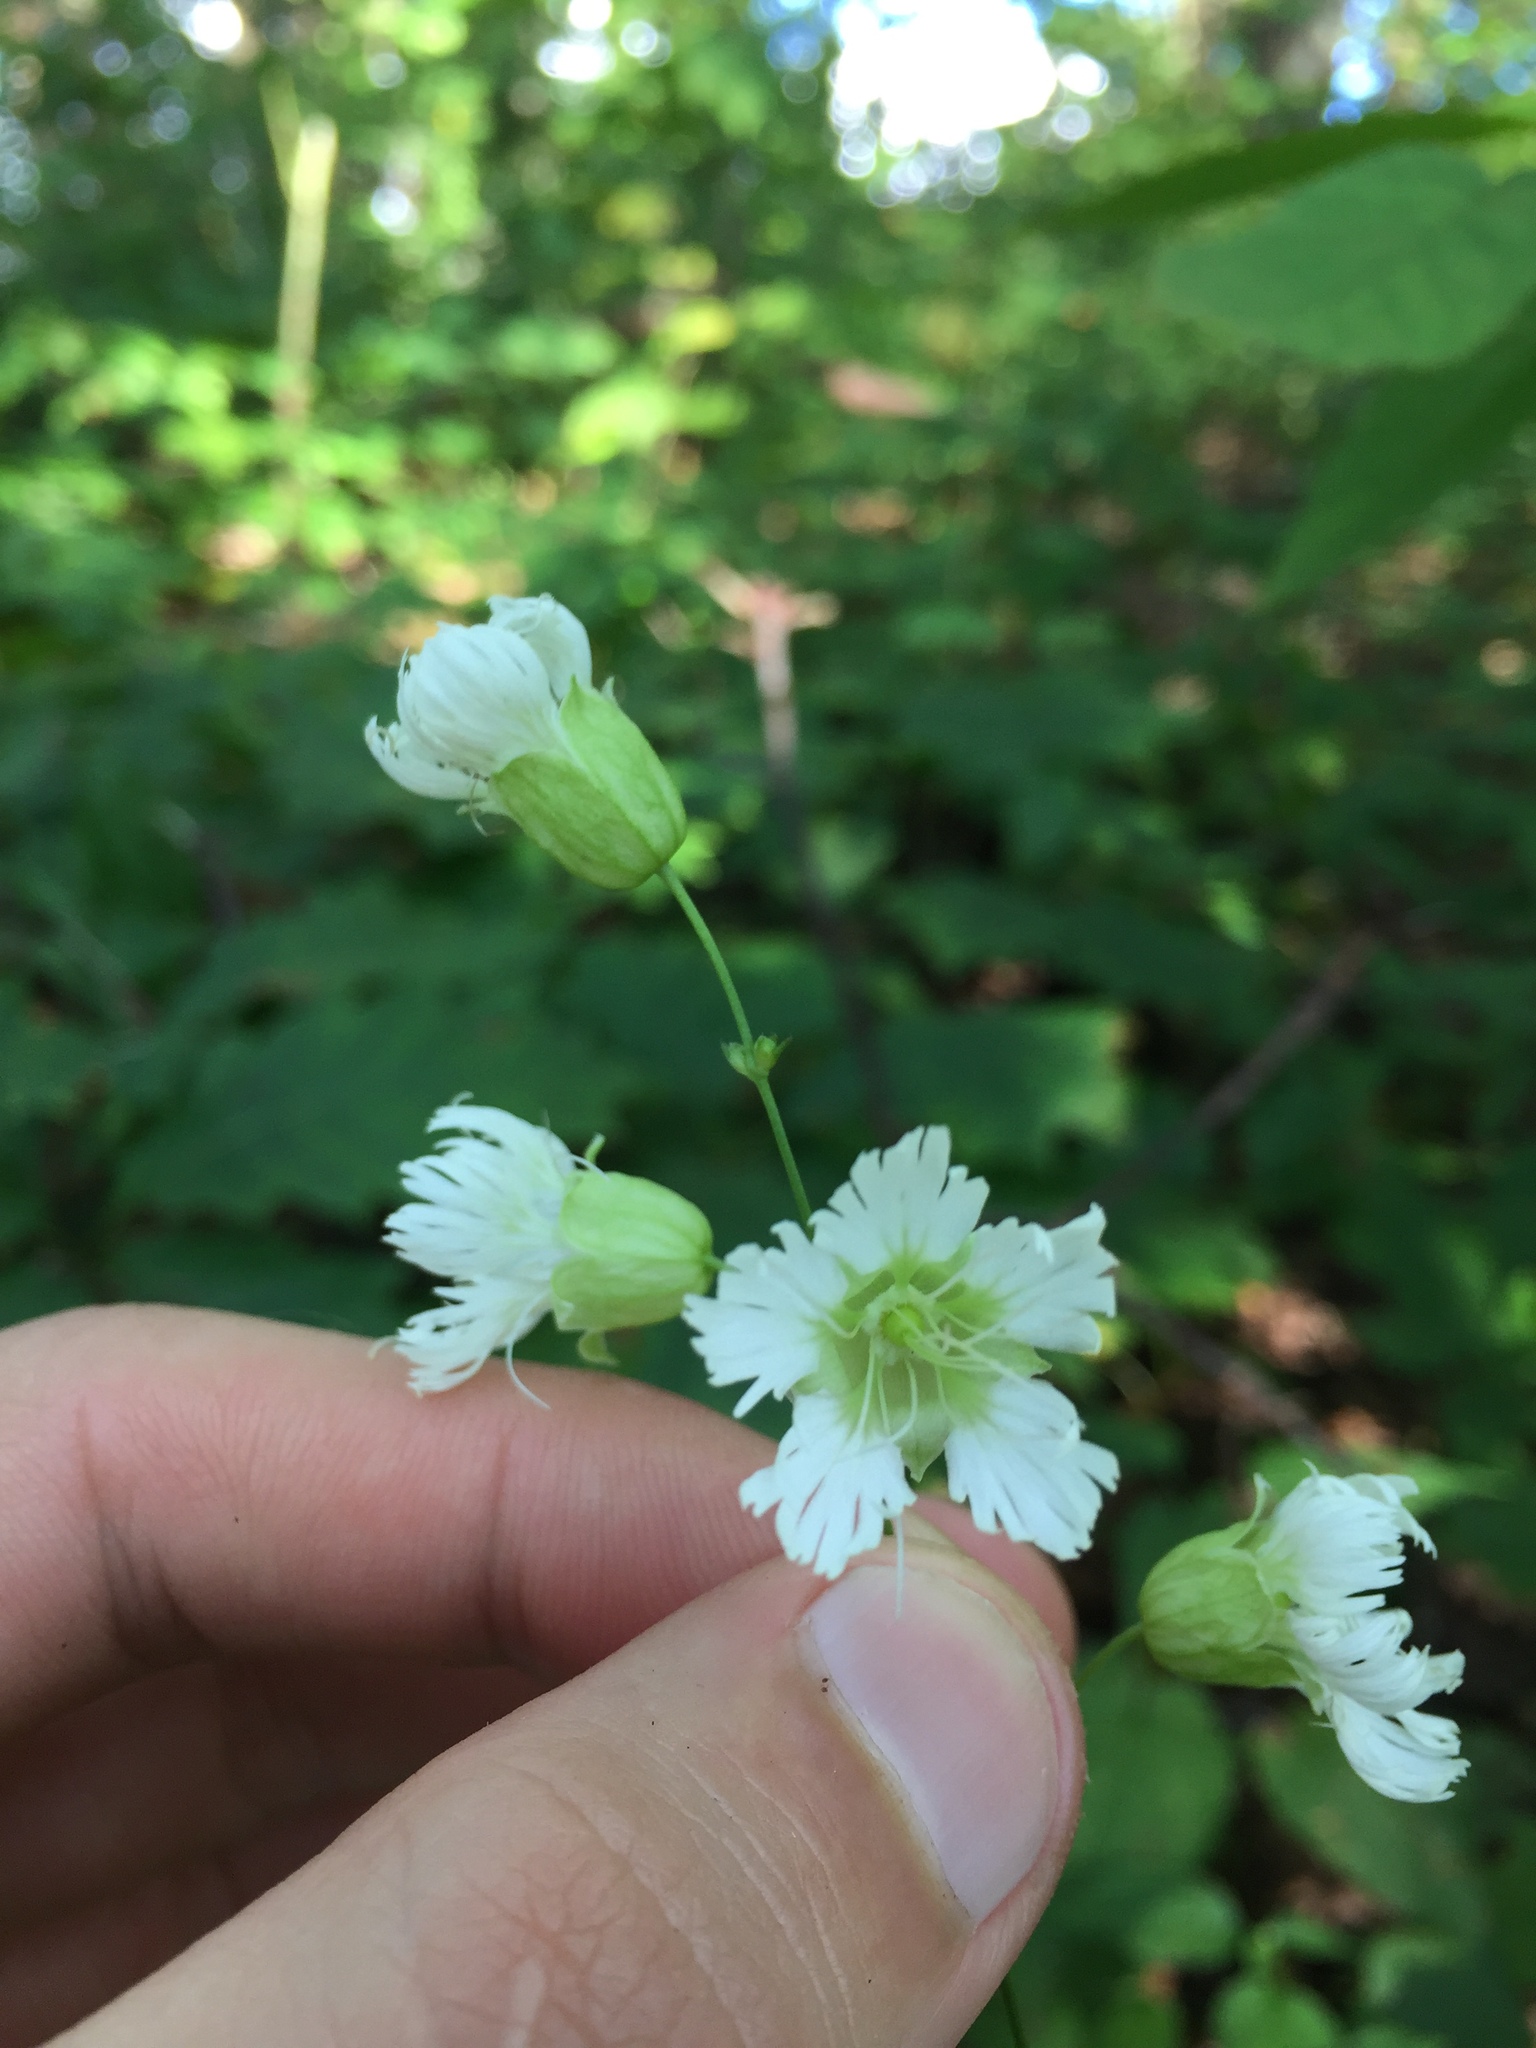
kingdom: Plantae
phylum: Tracheophyta
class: Magnoliopsida
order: Caryophyllales
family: Caryophyllaceae
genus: Silene
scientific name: Silene stellata
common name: Starry campion
